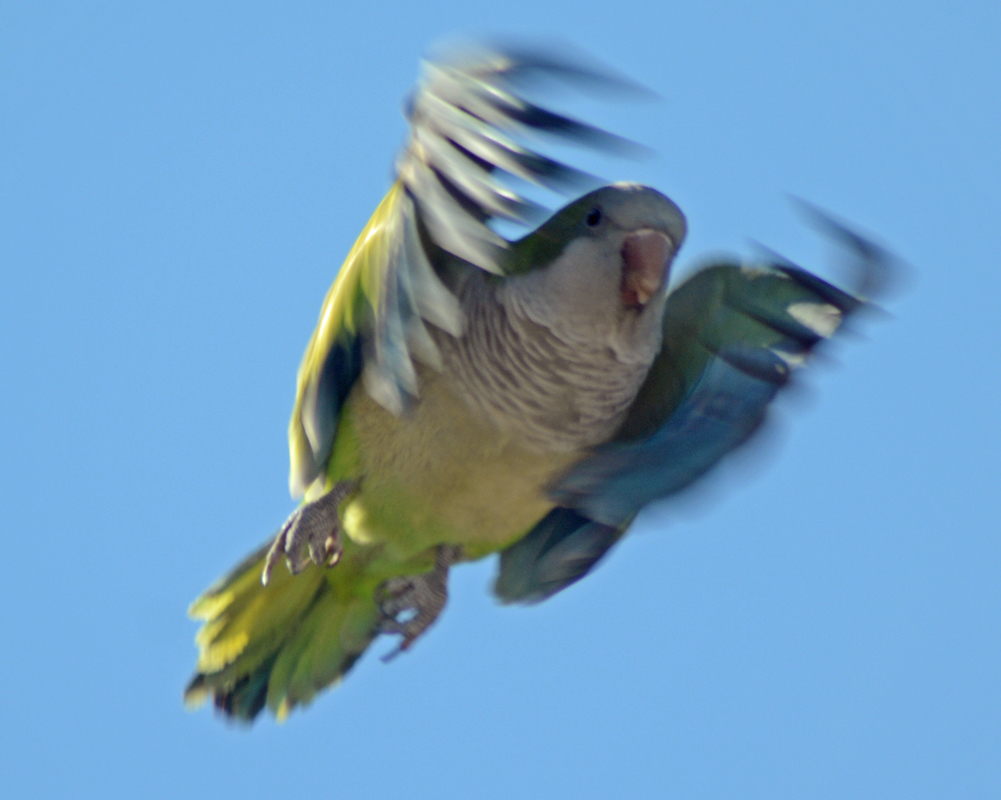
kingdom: Animalia
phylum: Chordata
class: Aves
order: Psittaciformes
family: Psittacidae
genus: Myiopsitta
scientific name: Myiopsitta monachus
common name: Monk parakeet
